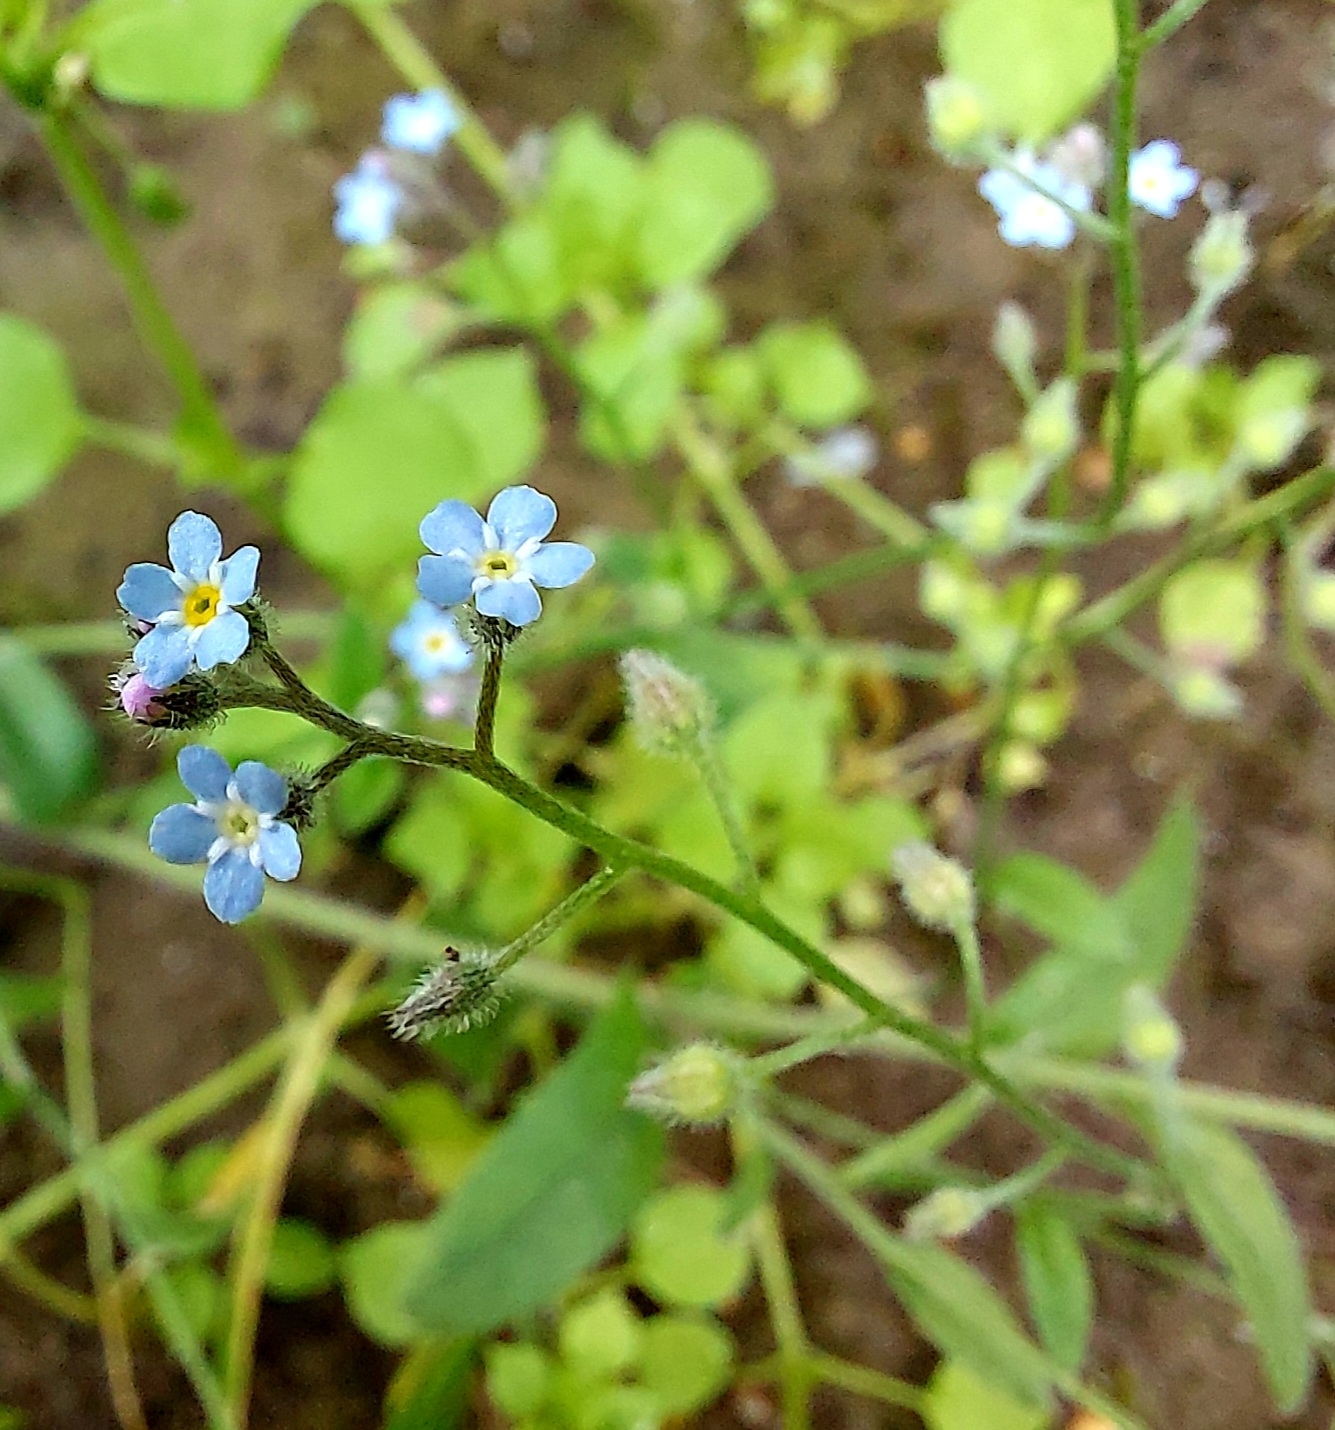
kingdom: Plantae
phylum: Tracheophyta
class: Magnoliopsida
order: Boraginales
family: Boraginaceae
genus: Myosotis
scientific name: Myosotis arvensis
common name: Field forget-me-not
